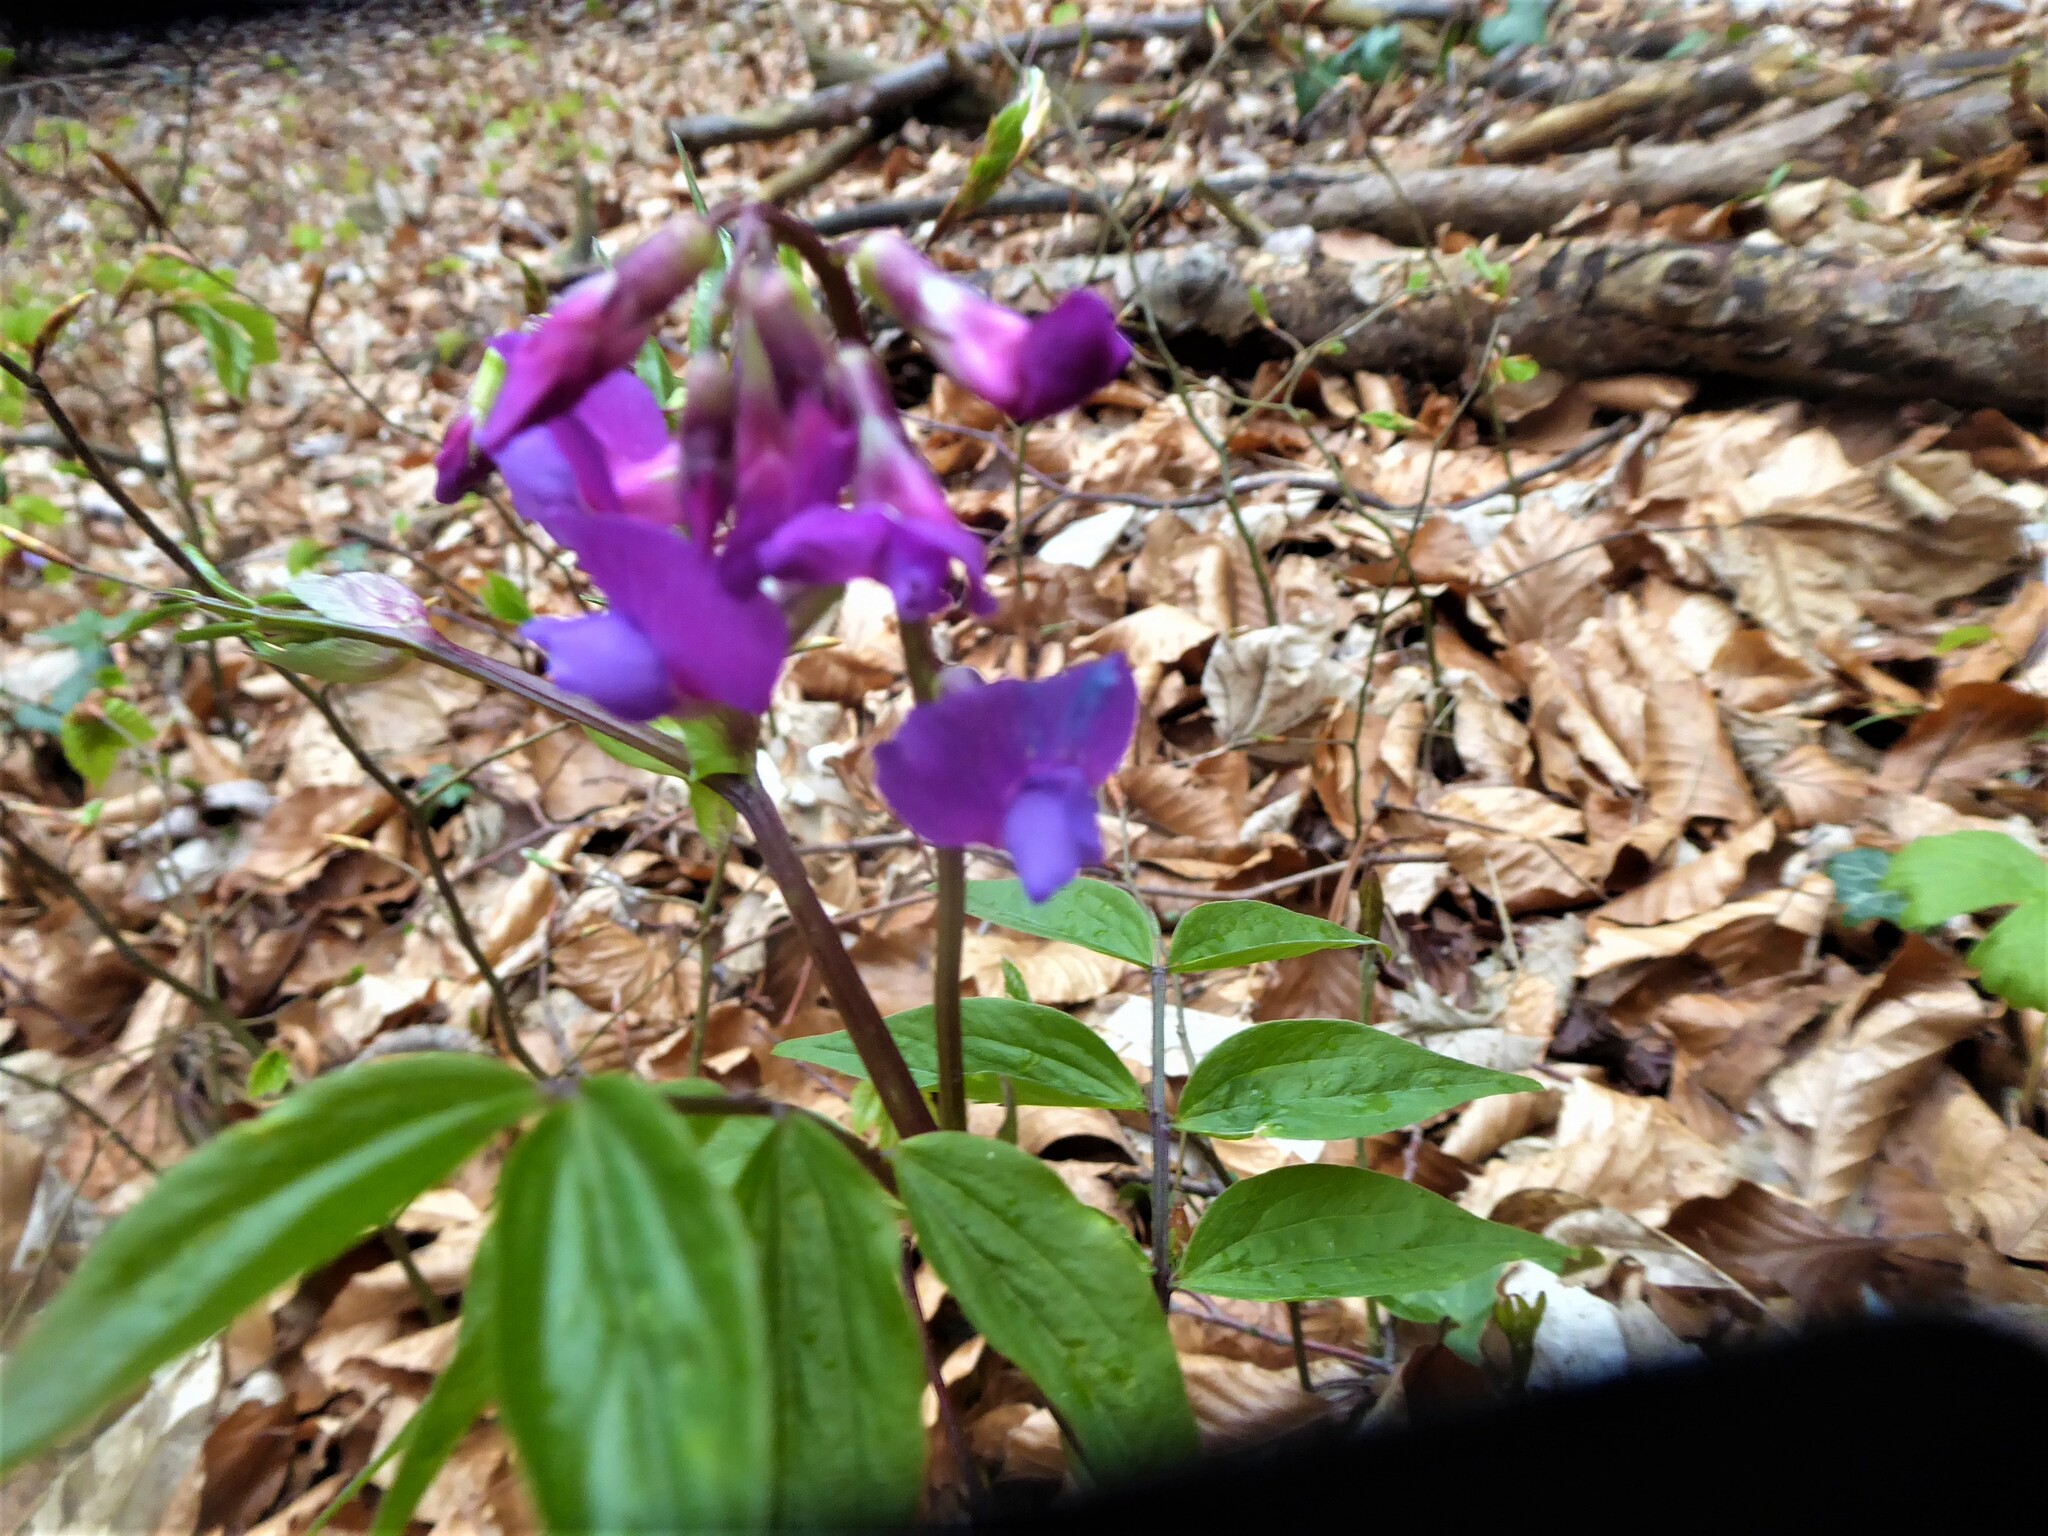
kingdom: Plantae
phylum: Tracheophyta
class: Magnoliopsida
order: Fabales
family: Fabaceae
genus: Lathyrus
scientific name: Lathyrus vernus
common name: Spring pea
